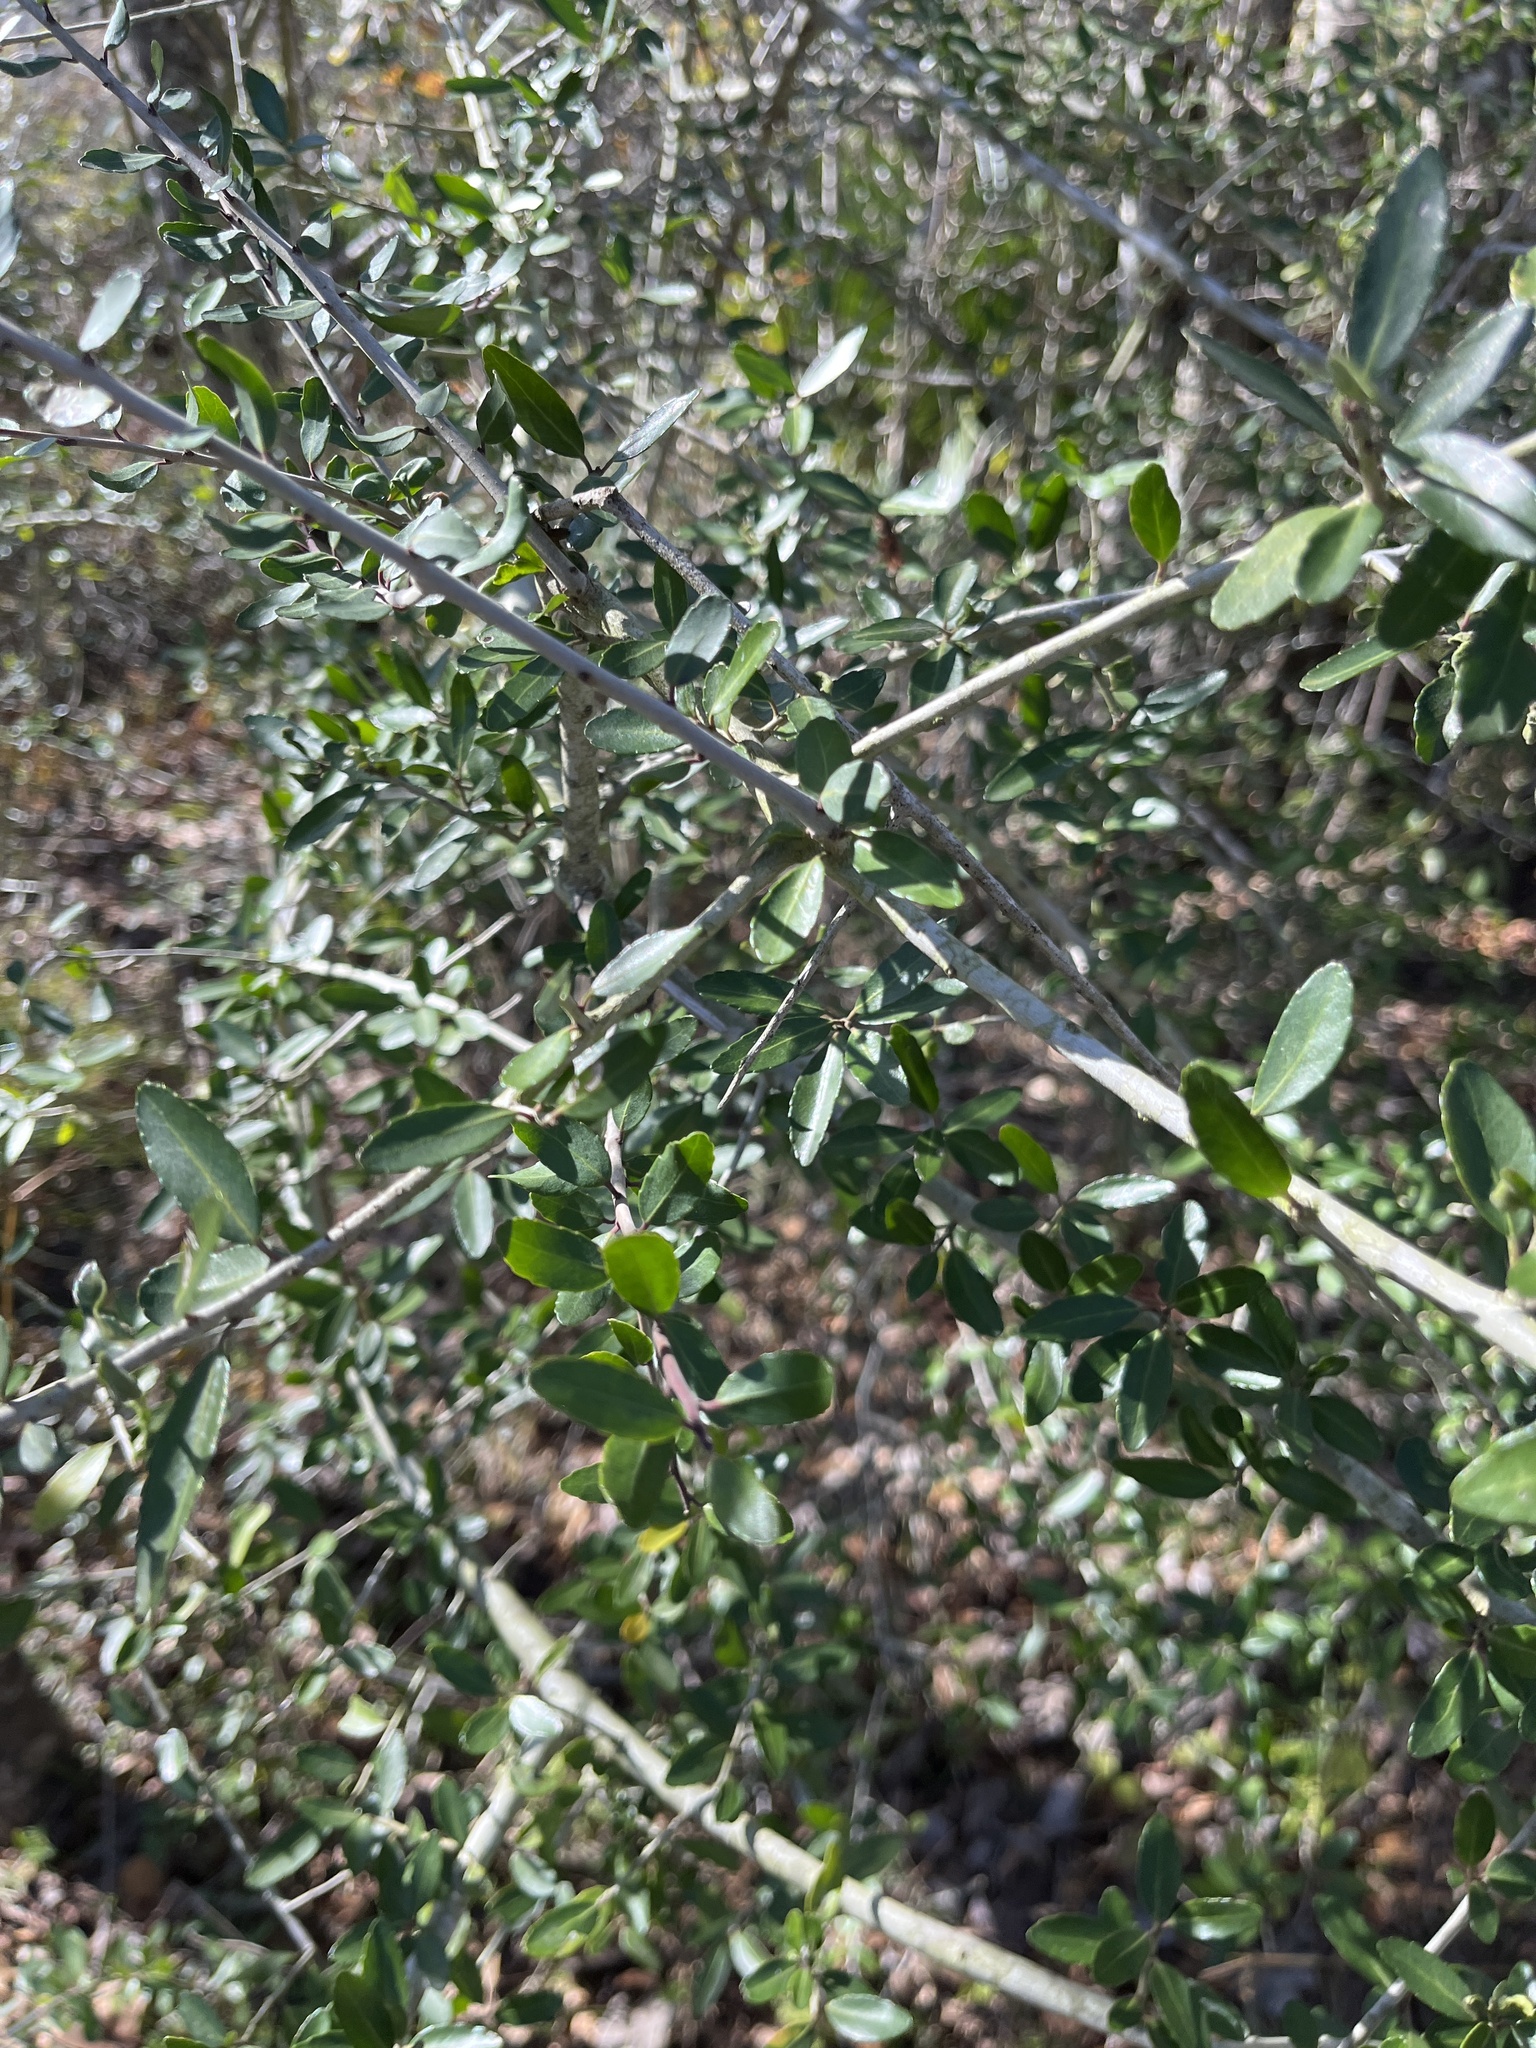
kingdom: Plantae
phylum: Tracheophyta
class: Magnoliopsida
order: Aquifoliales
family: Aquifoliaceae
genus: Ilex
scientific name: Ilex vomitoria
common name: Yaupon holly
